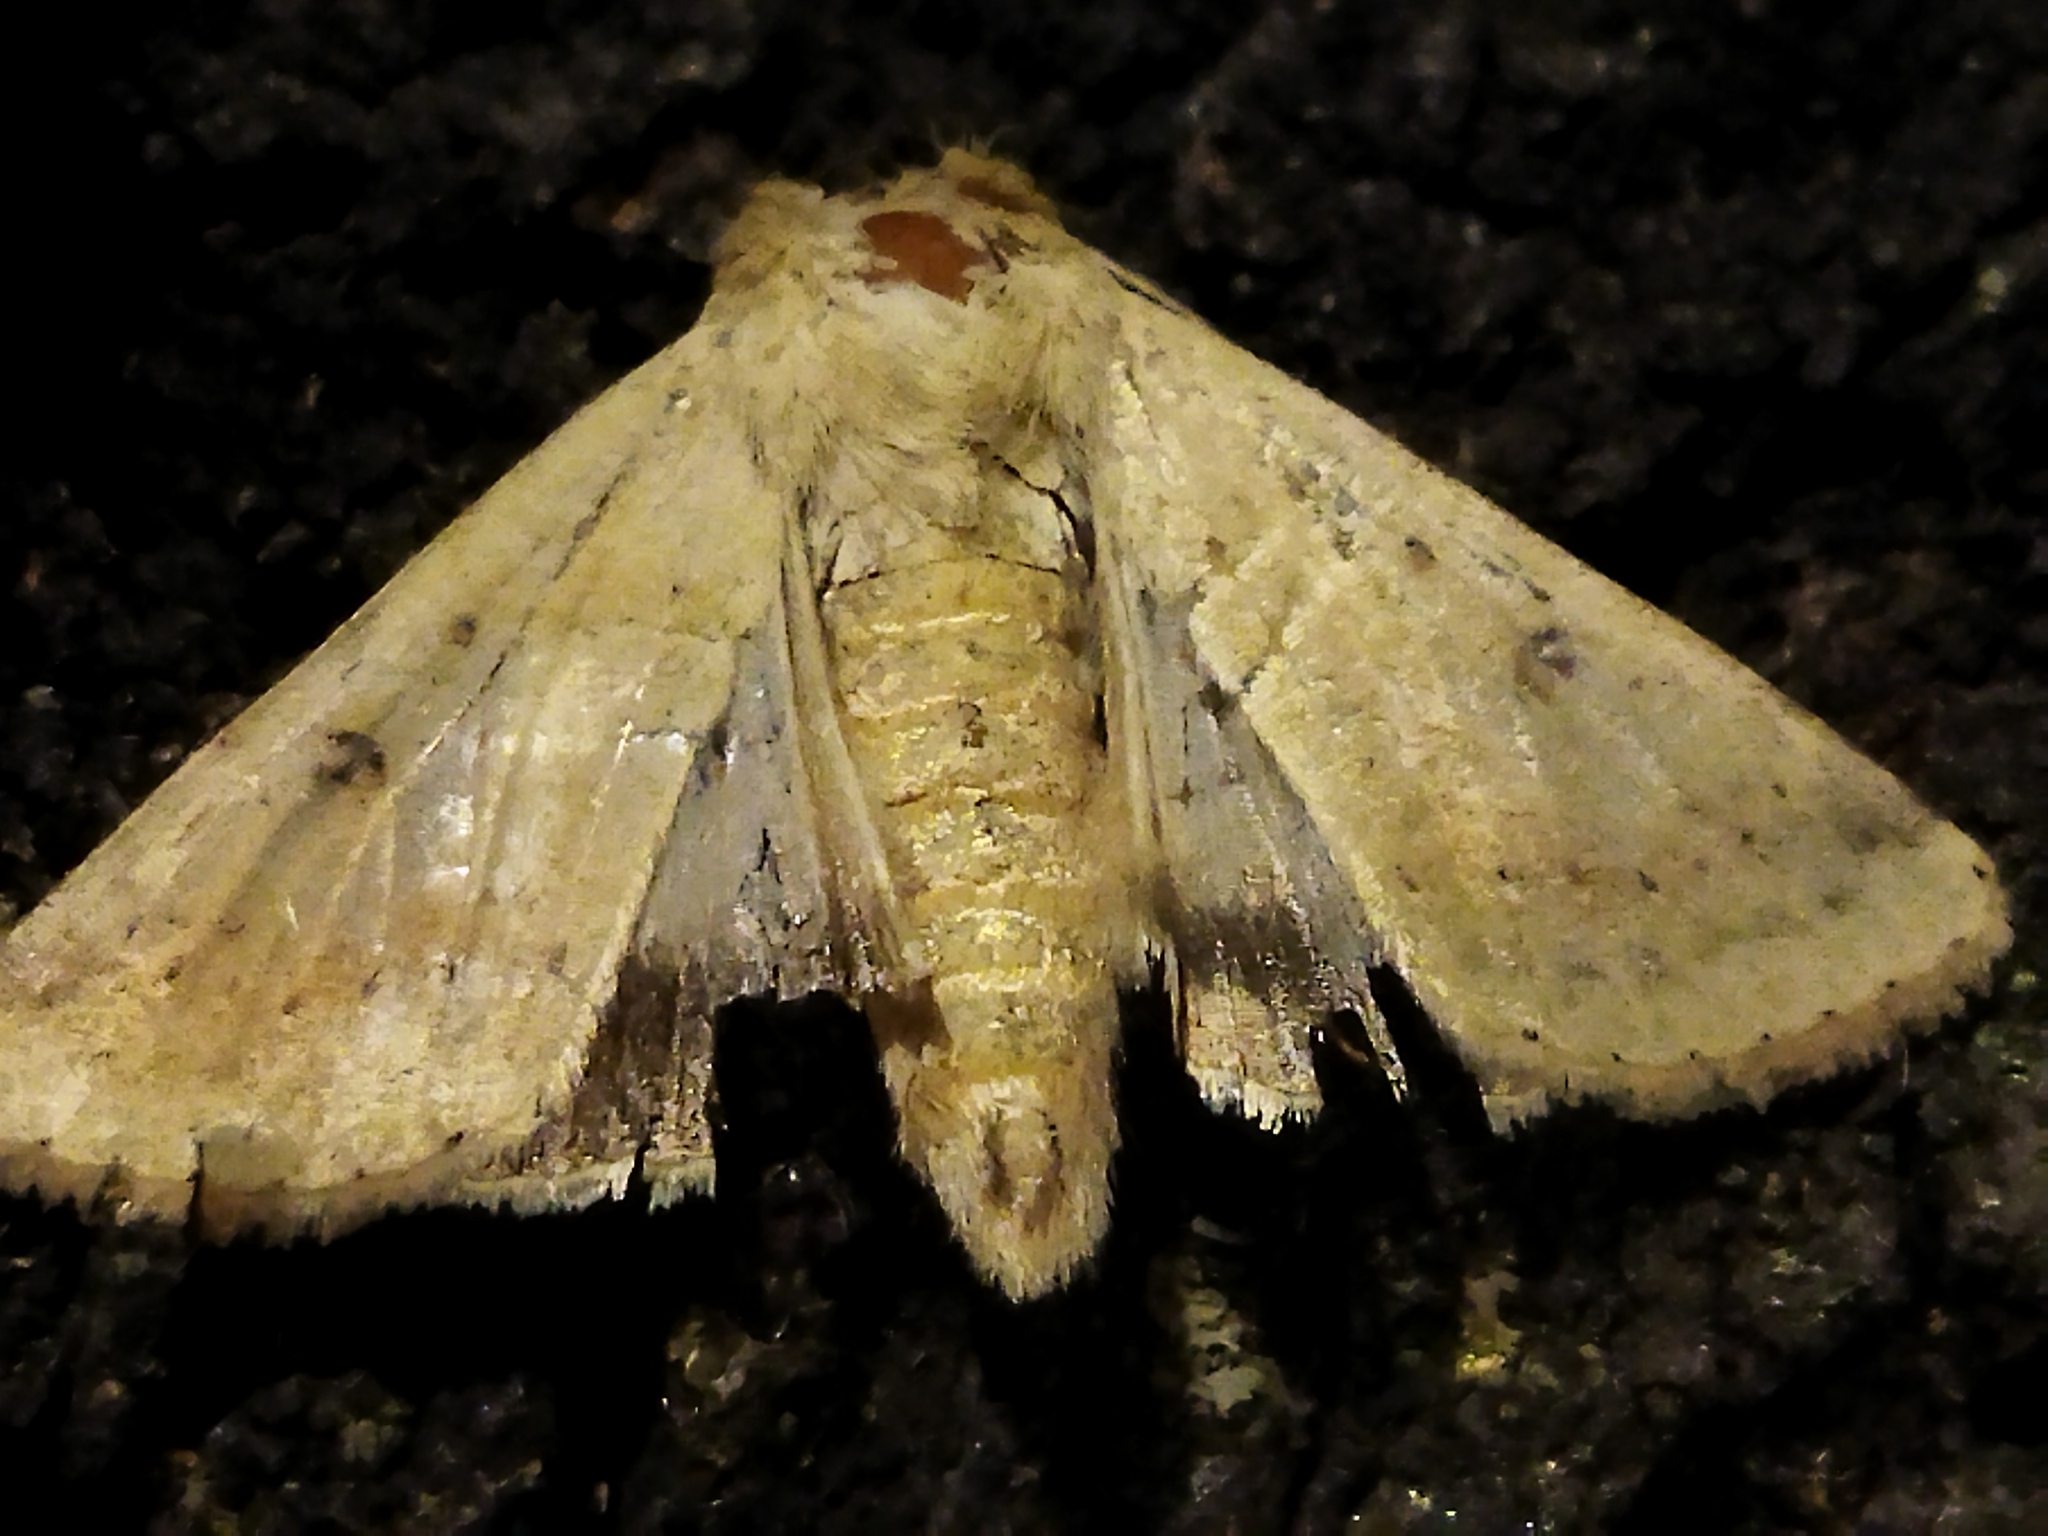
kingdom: Animalia
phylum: Arthropoda
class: Insecta
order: Lepidoptera
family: Noctuidae
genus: Helicoverpa
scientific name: Helicoverpa armigera
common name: Cotton bollworm
